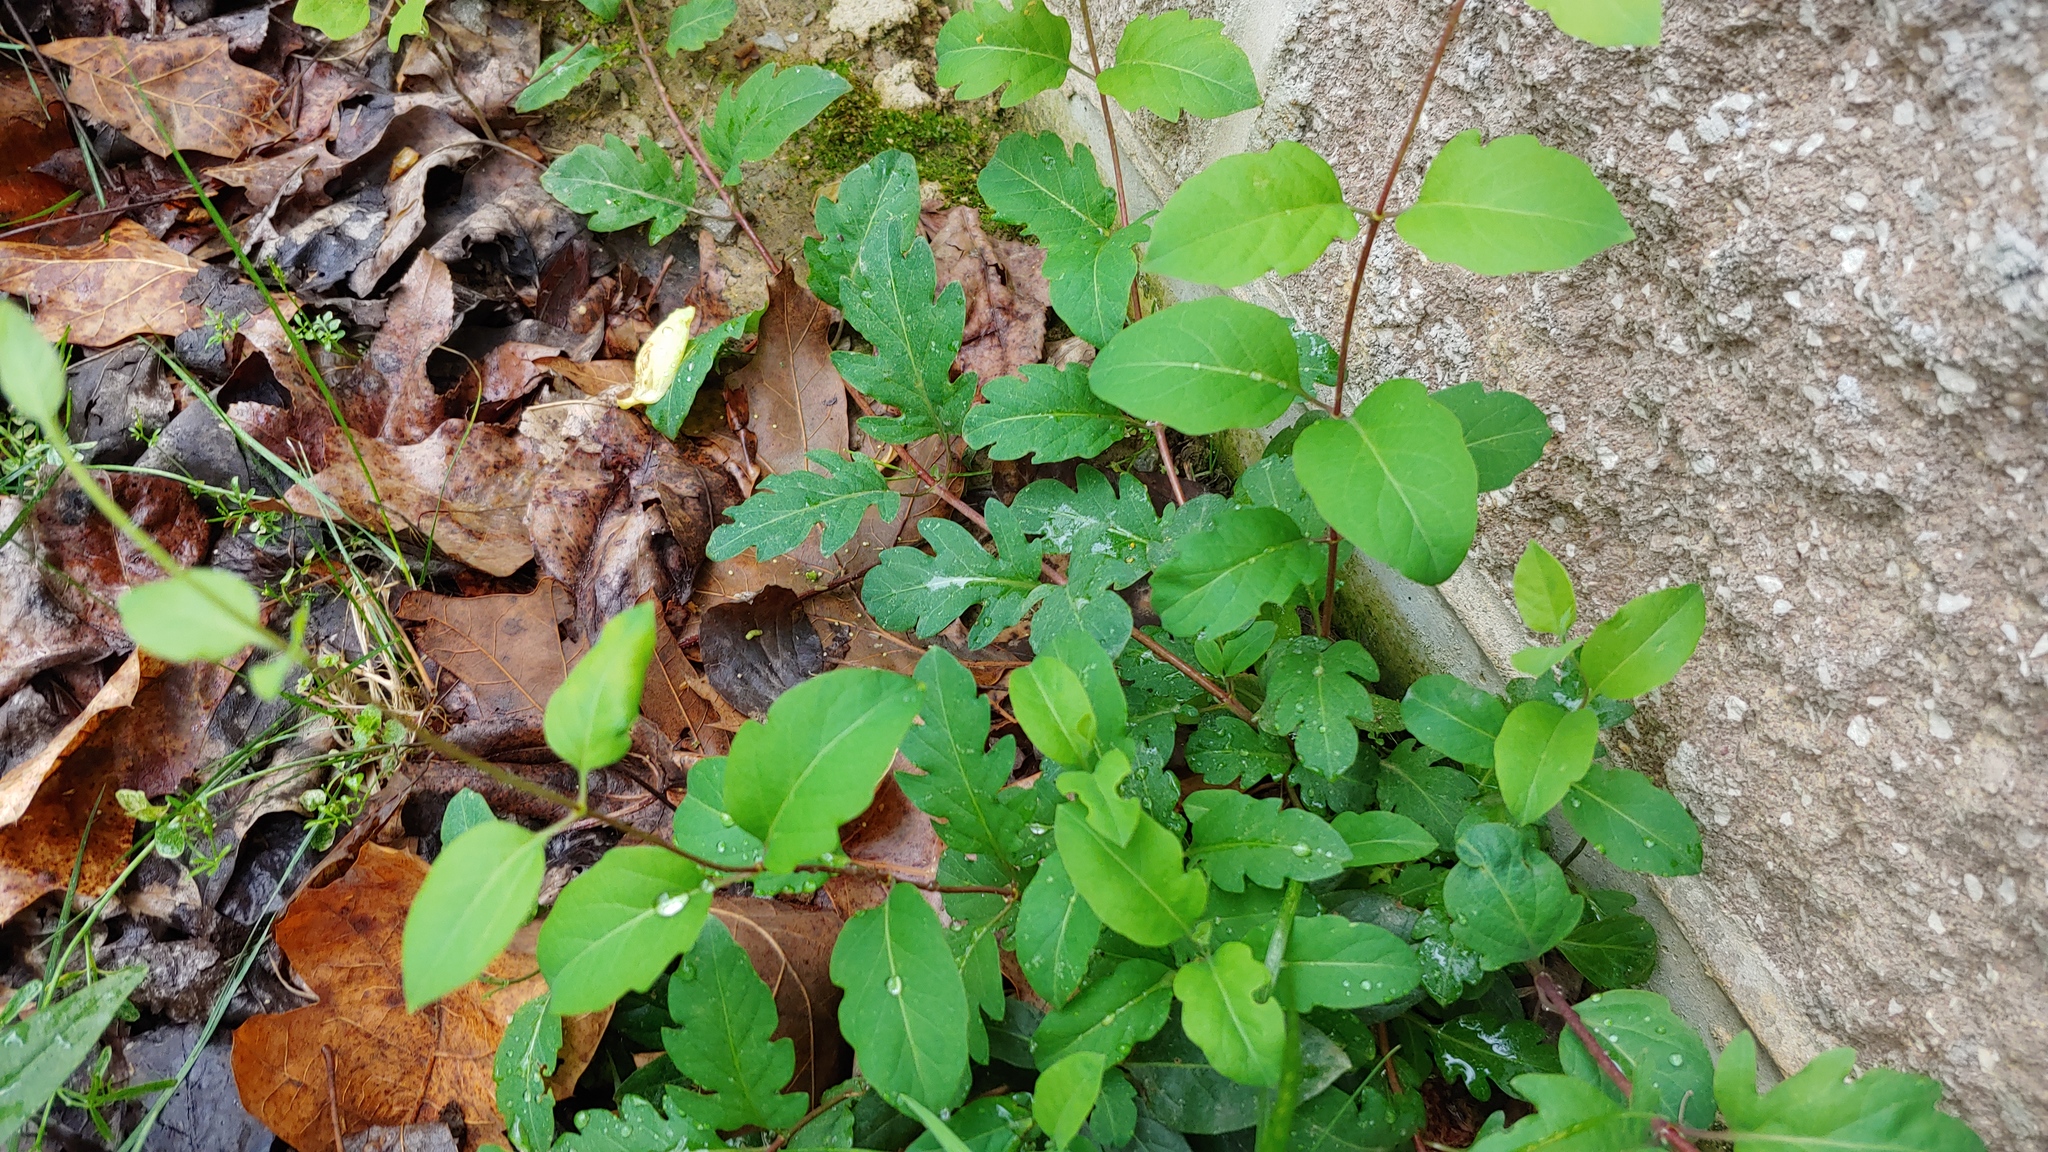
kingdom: Plantae
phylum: Tracheophyta
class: Magnoliopsida
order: Dipsacales
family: Caprifoliaceae
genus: Lonicera
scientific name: Lonicera japonica
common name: Japanese honeysuckle
